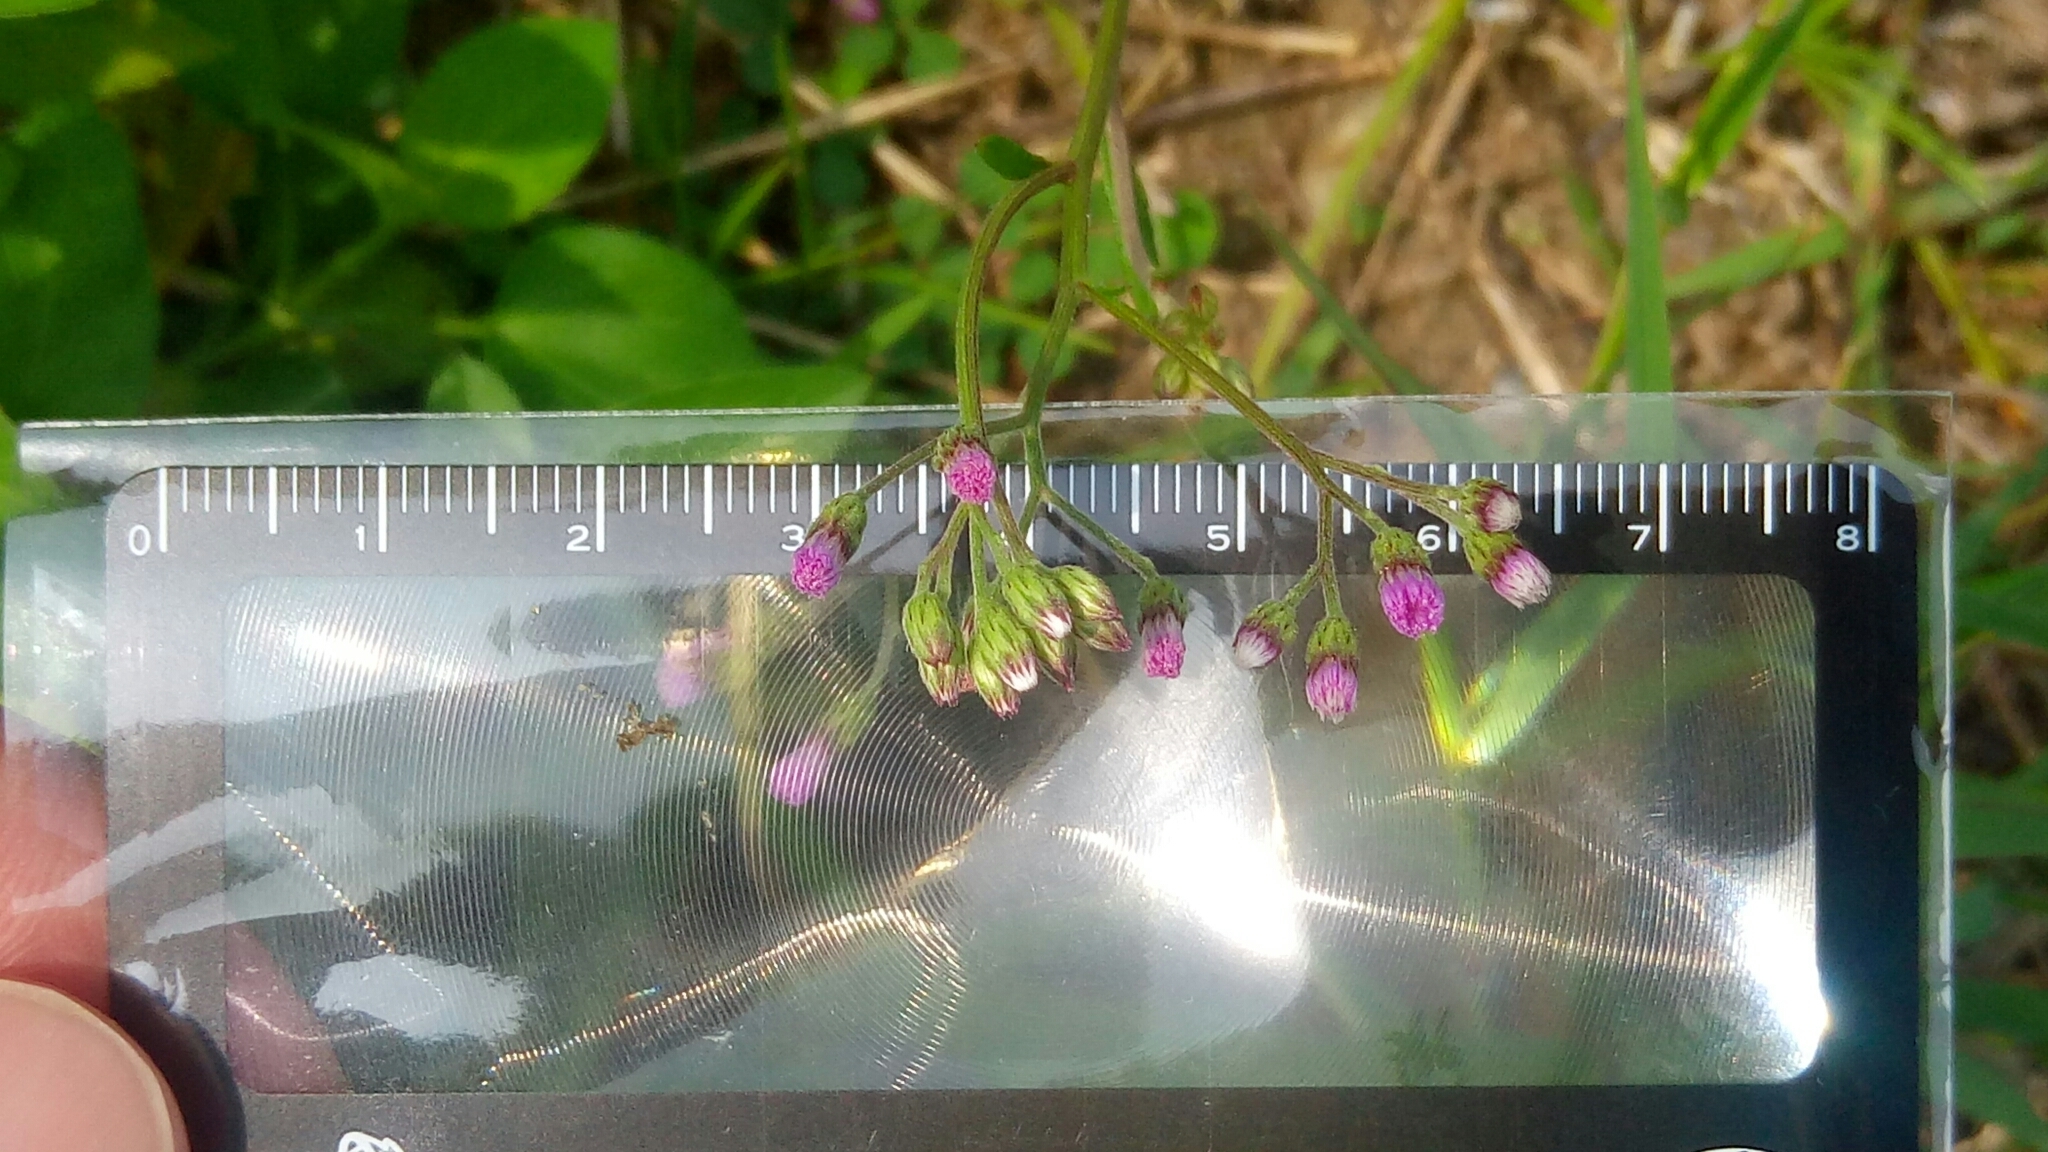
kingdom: Plantae
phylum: Tracheophyta
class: Magnoliopsida
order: Asterales
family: Asteraceae
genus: Cyanthillium
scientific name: Cyanthillium cinereum
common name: Little ironweed
